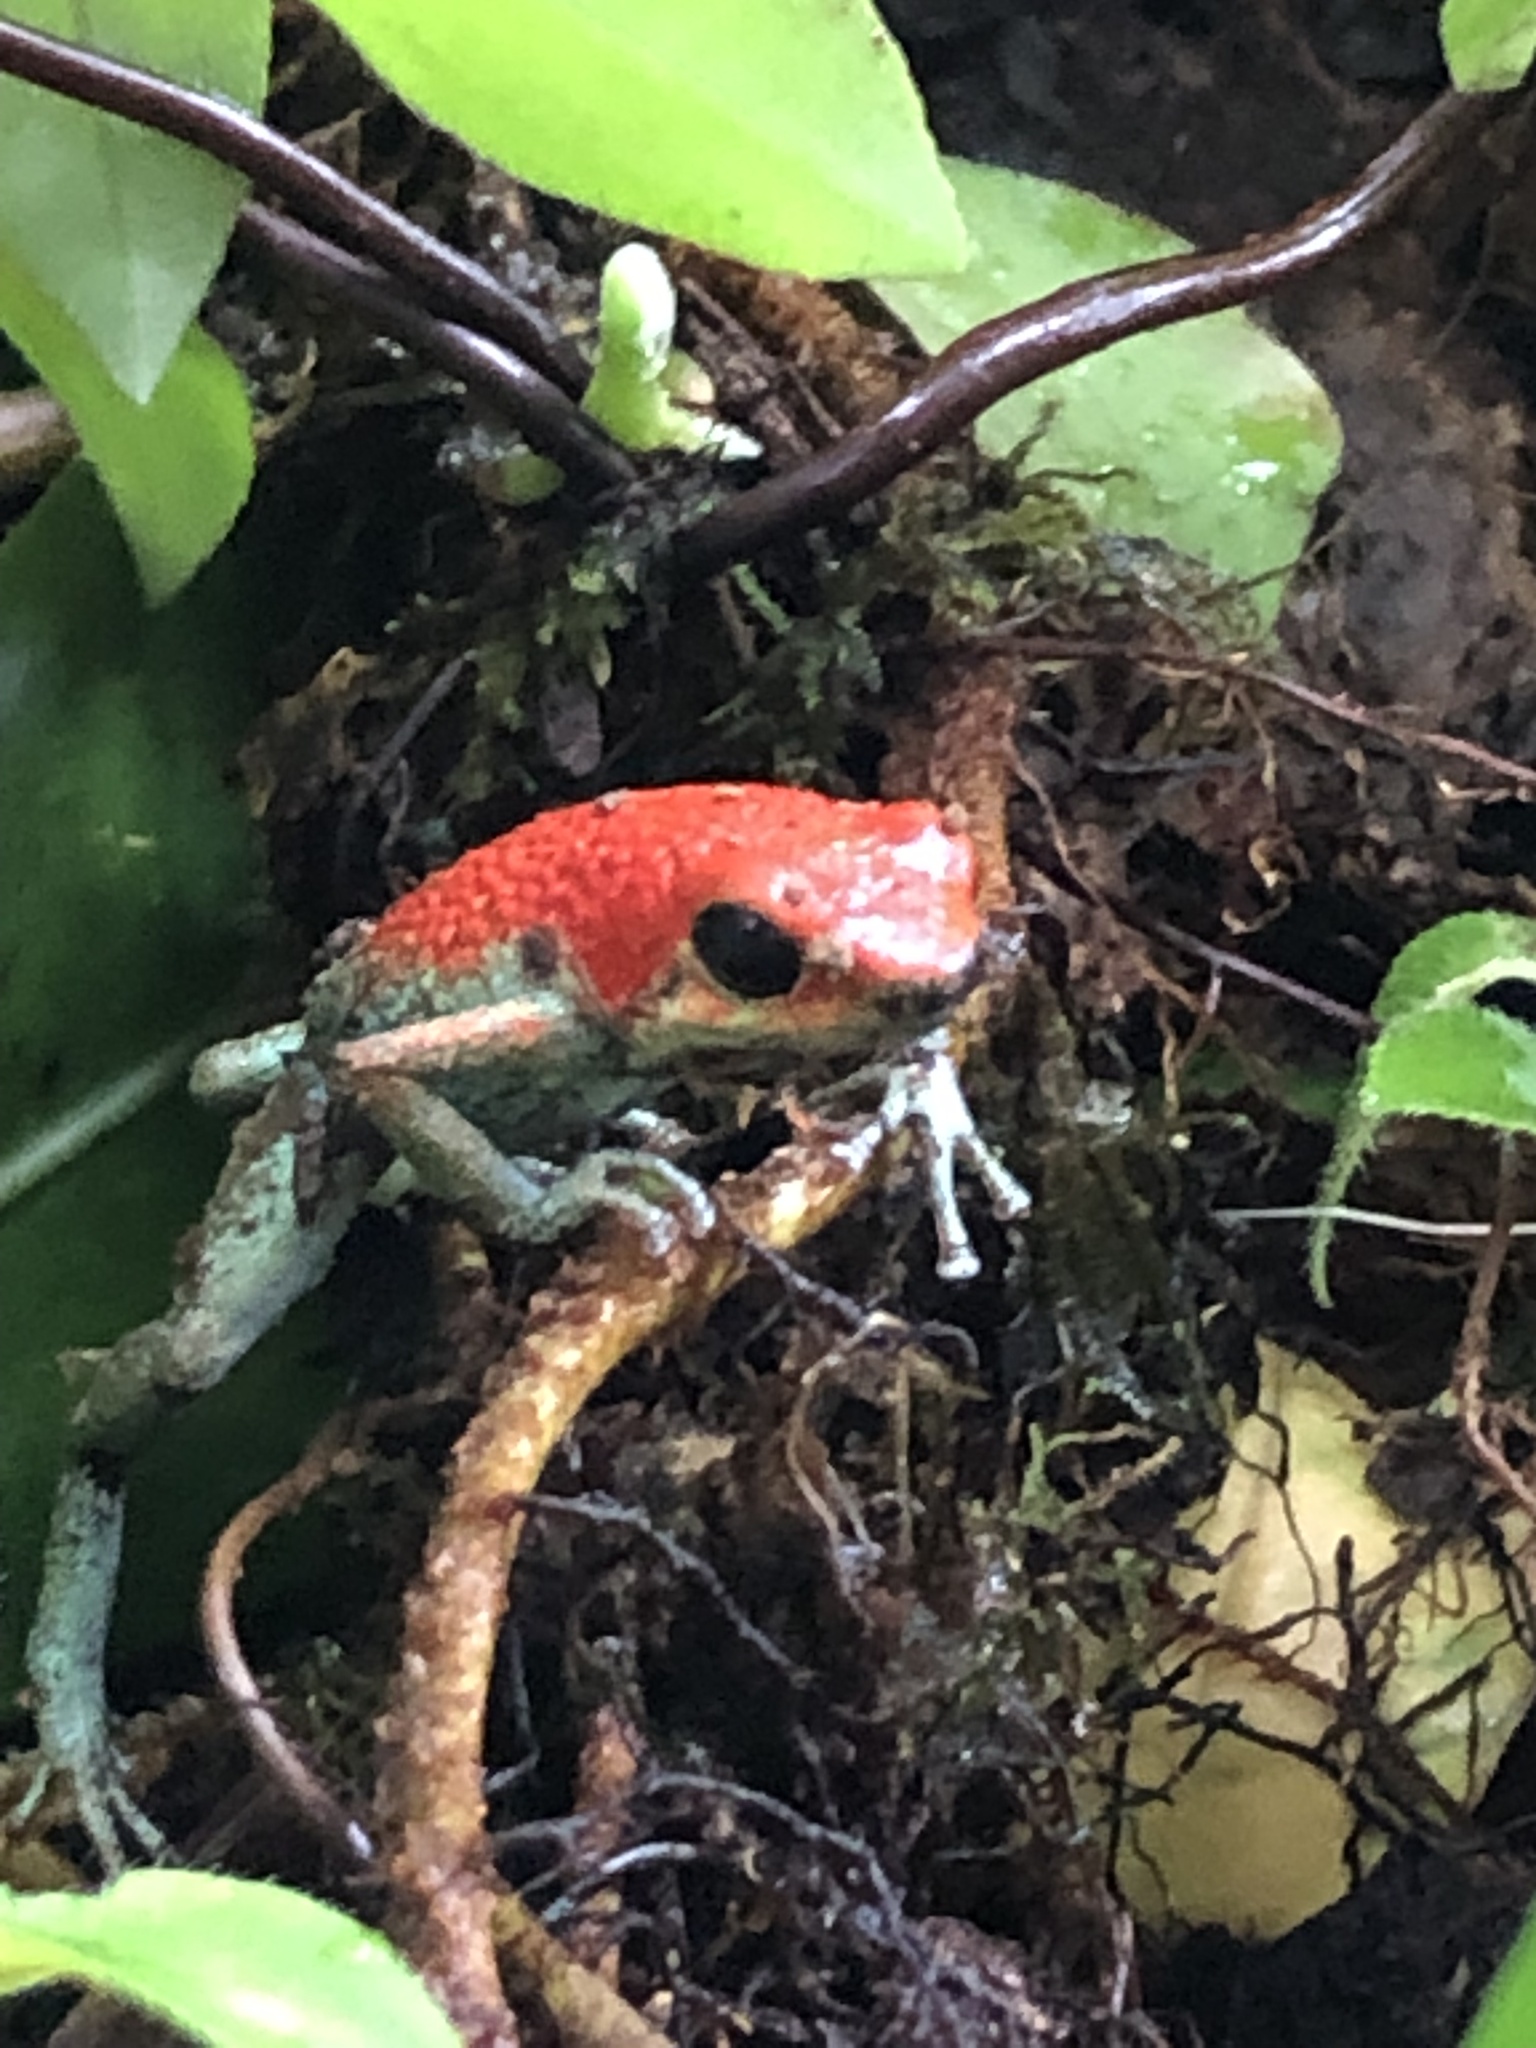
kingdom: Animalia
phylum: Chordata
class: Amphibia
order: Anura
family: Dendrobatidae
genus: Oophaga
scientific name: Oophaga granulifera
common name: Granular poison frog
